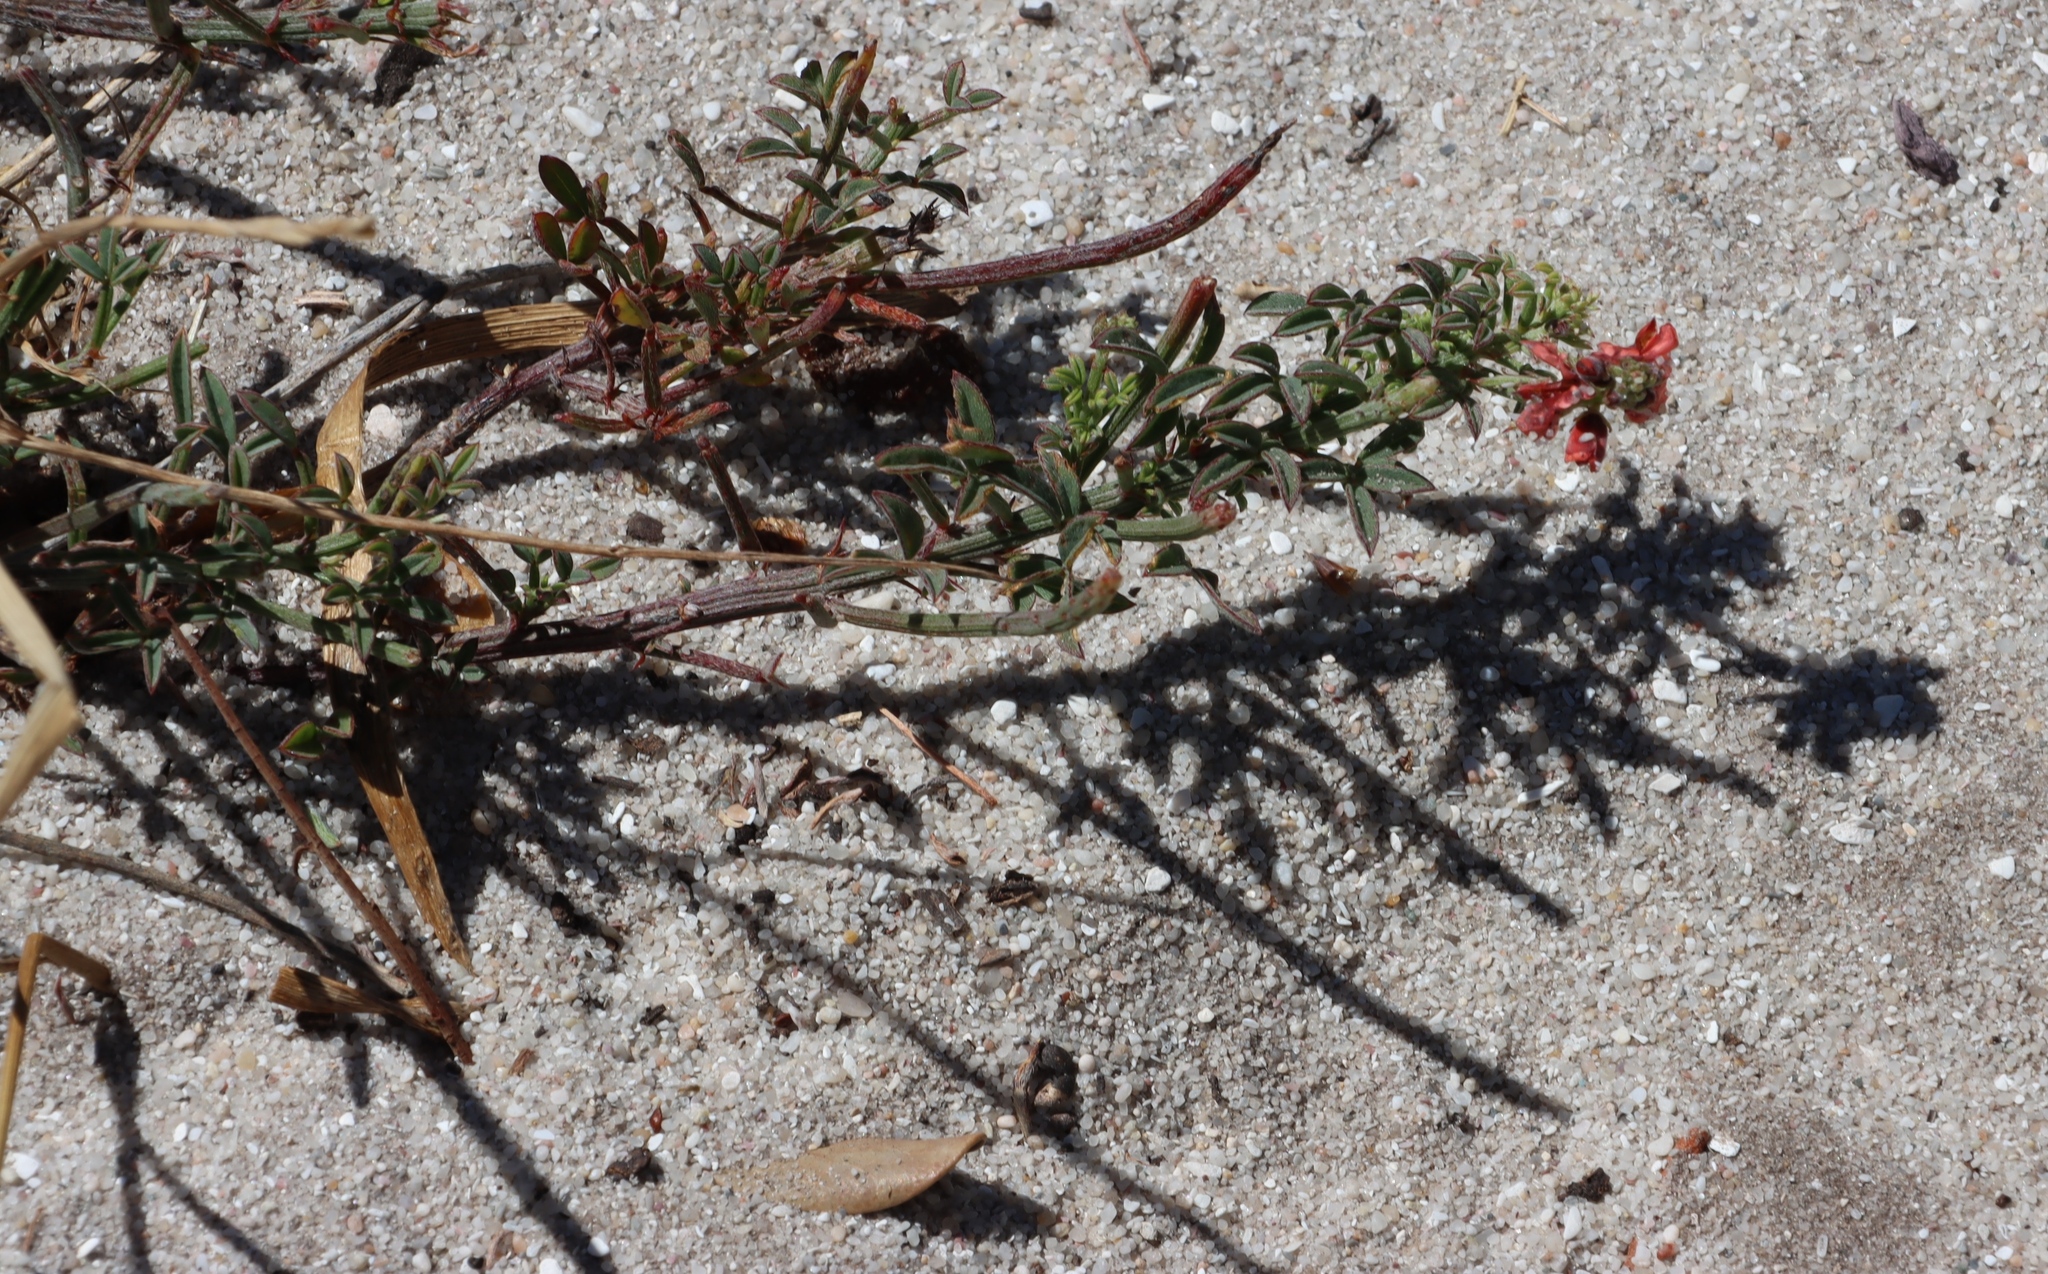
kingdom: Plantae
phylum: Tracheophyta
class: Magnoliopsida
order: Fabales
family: Fabaceae
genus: Indigofera
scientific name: Indigofera heterophylla
